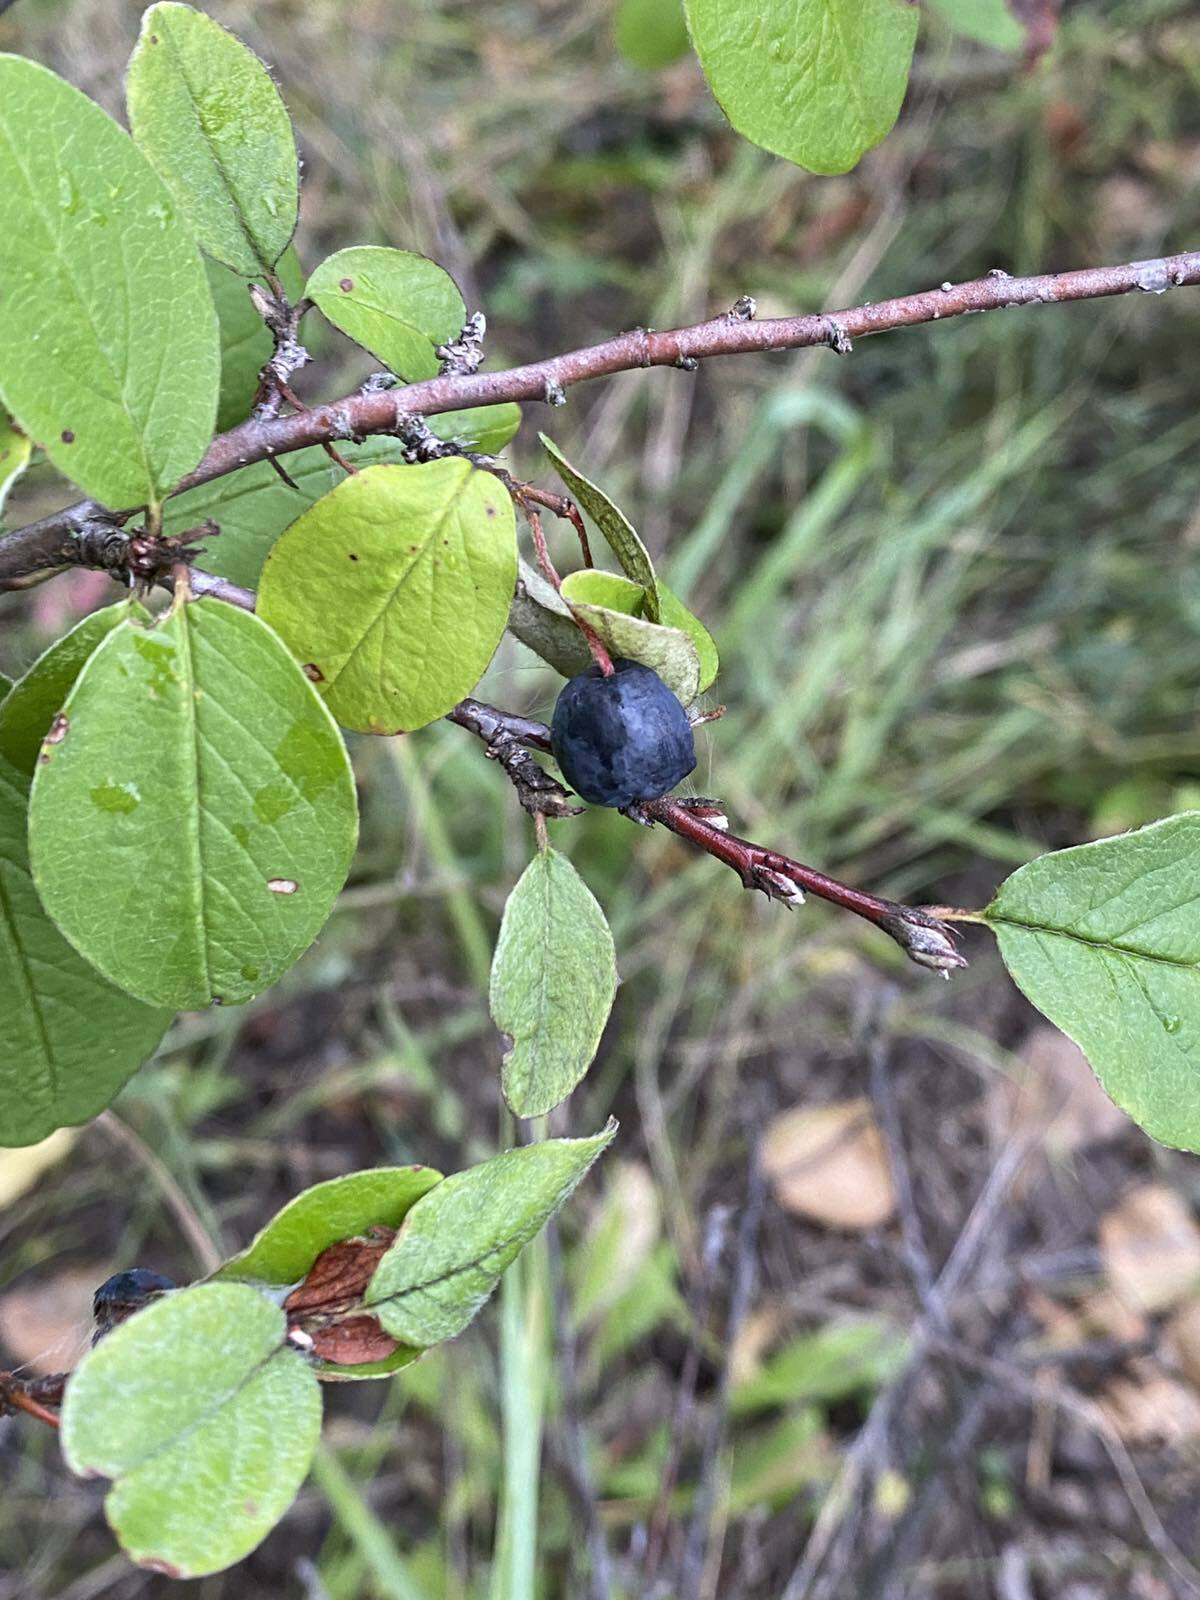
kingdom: Plantae
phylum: Tracheophyta
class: Magnoliopsida
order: Rosales
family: Rosaceae
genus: Cotoneaster
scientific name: Cotoneaster melanocarpus
